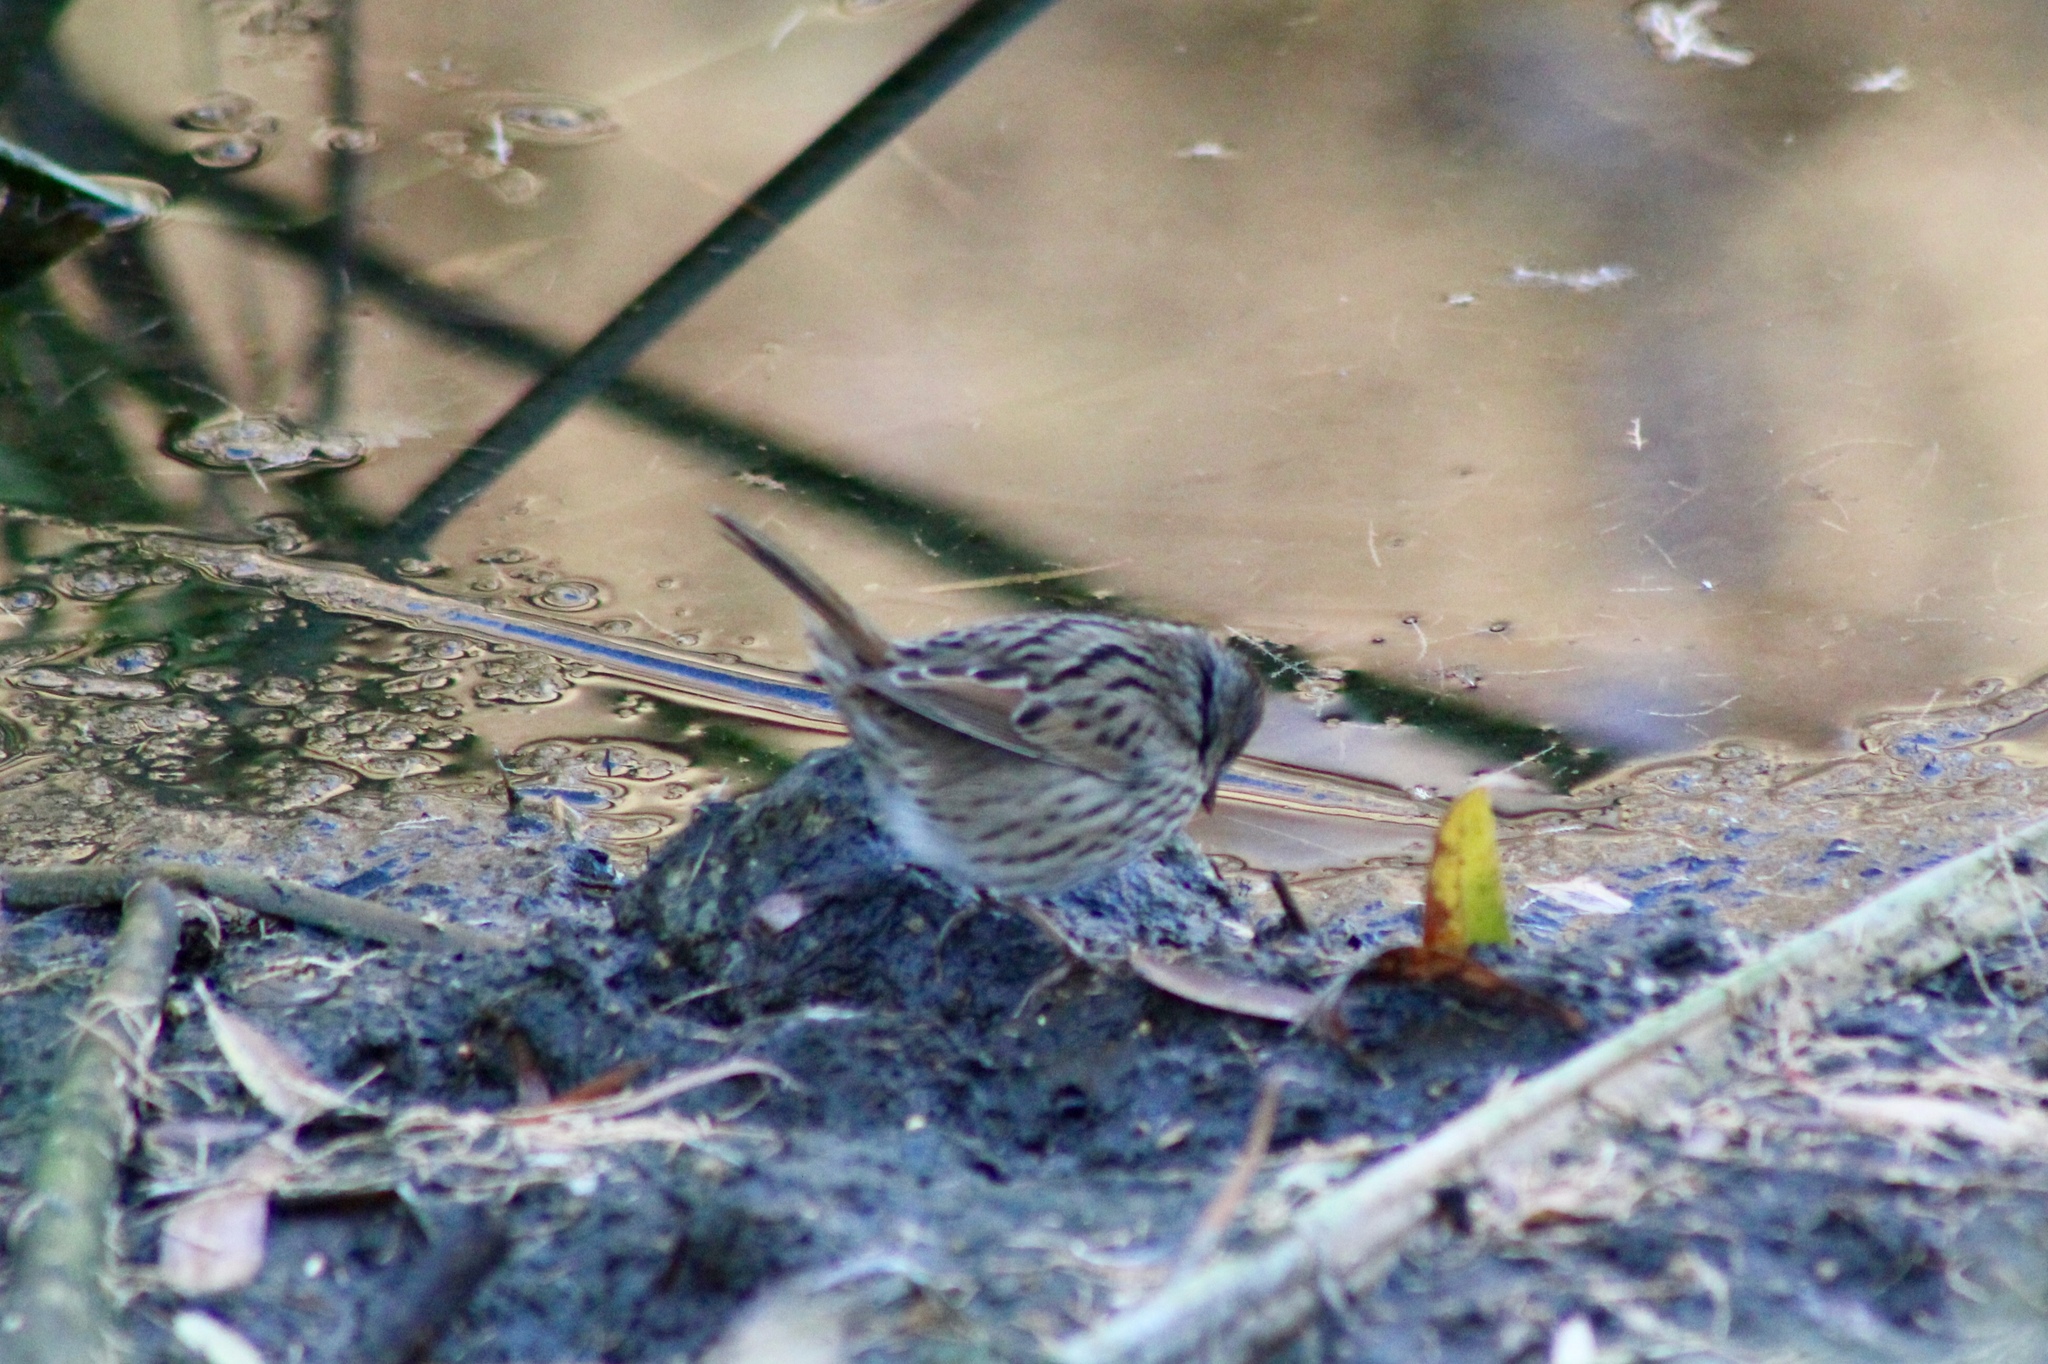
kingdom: Animalia
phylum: Chordata
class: Aves
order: Passeriformes
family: Passerellidae
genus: Melospiza
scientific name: Melospiza lincolnii
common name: Lincoln's sparrow
